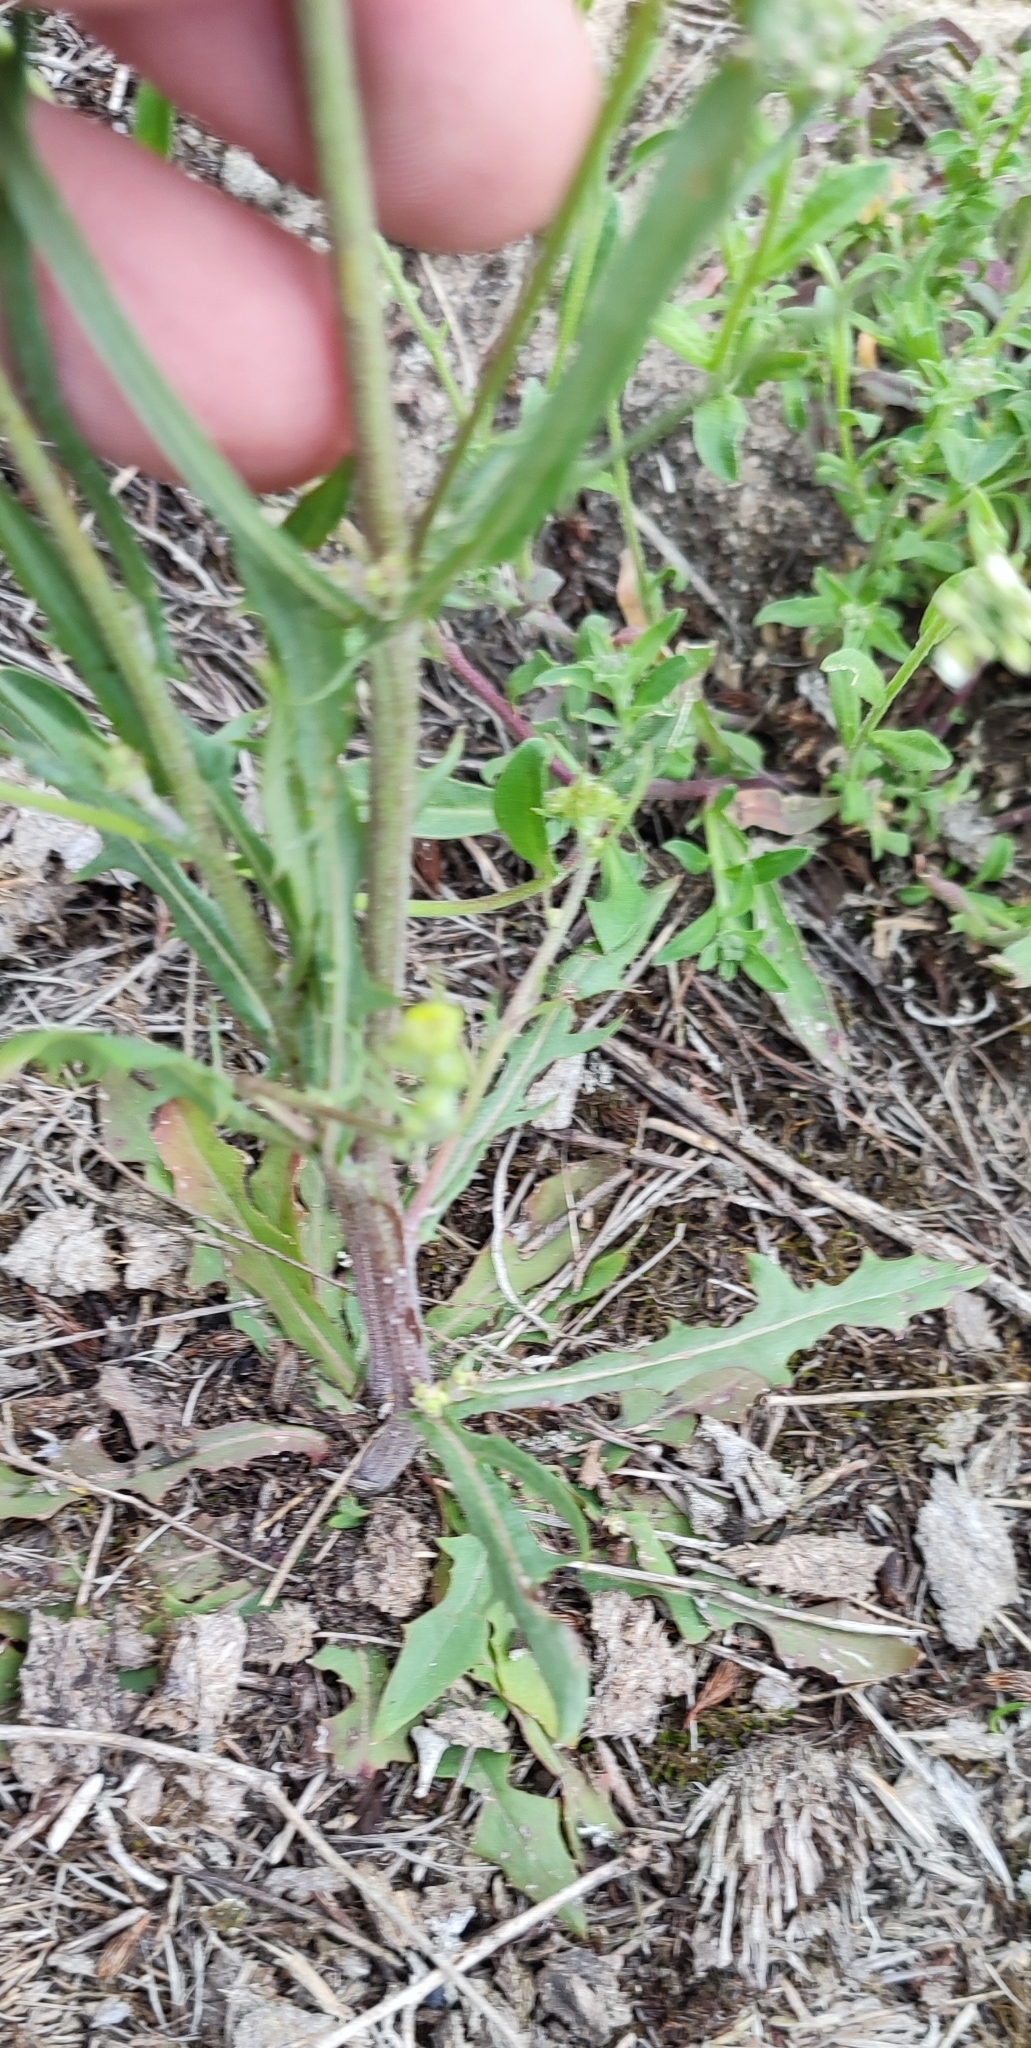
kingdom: Plantae
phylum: Tracheophyta
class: Magnoliopsida
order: Asterales
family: Asteraceae
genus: Crepis
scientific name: Crepis tectorum
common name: Narrow-leaved hawk's-beard
